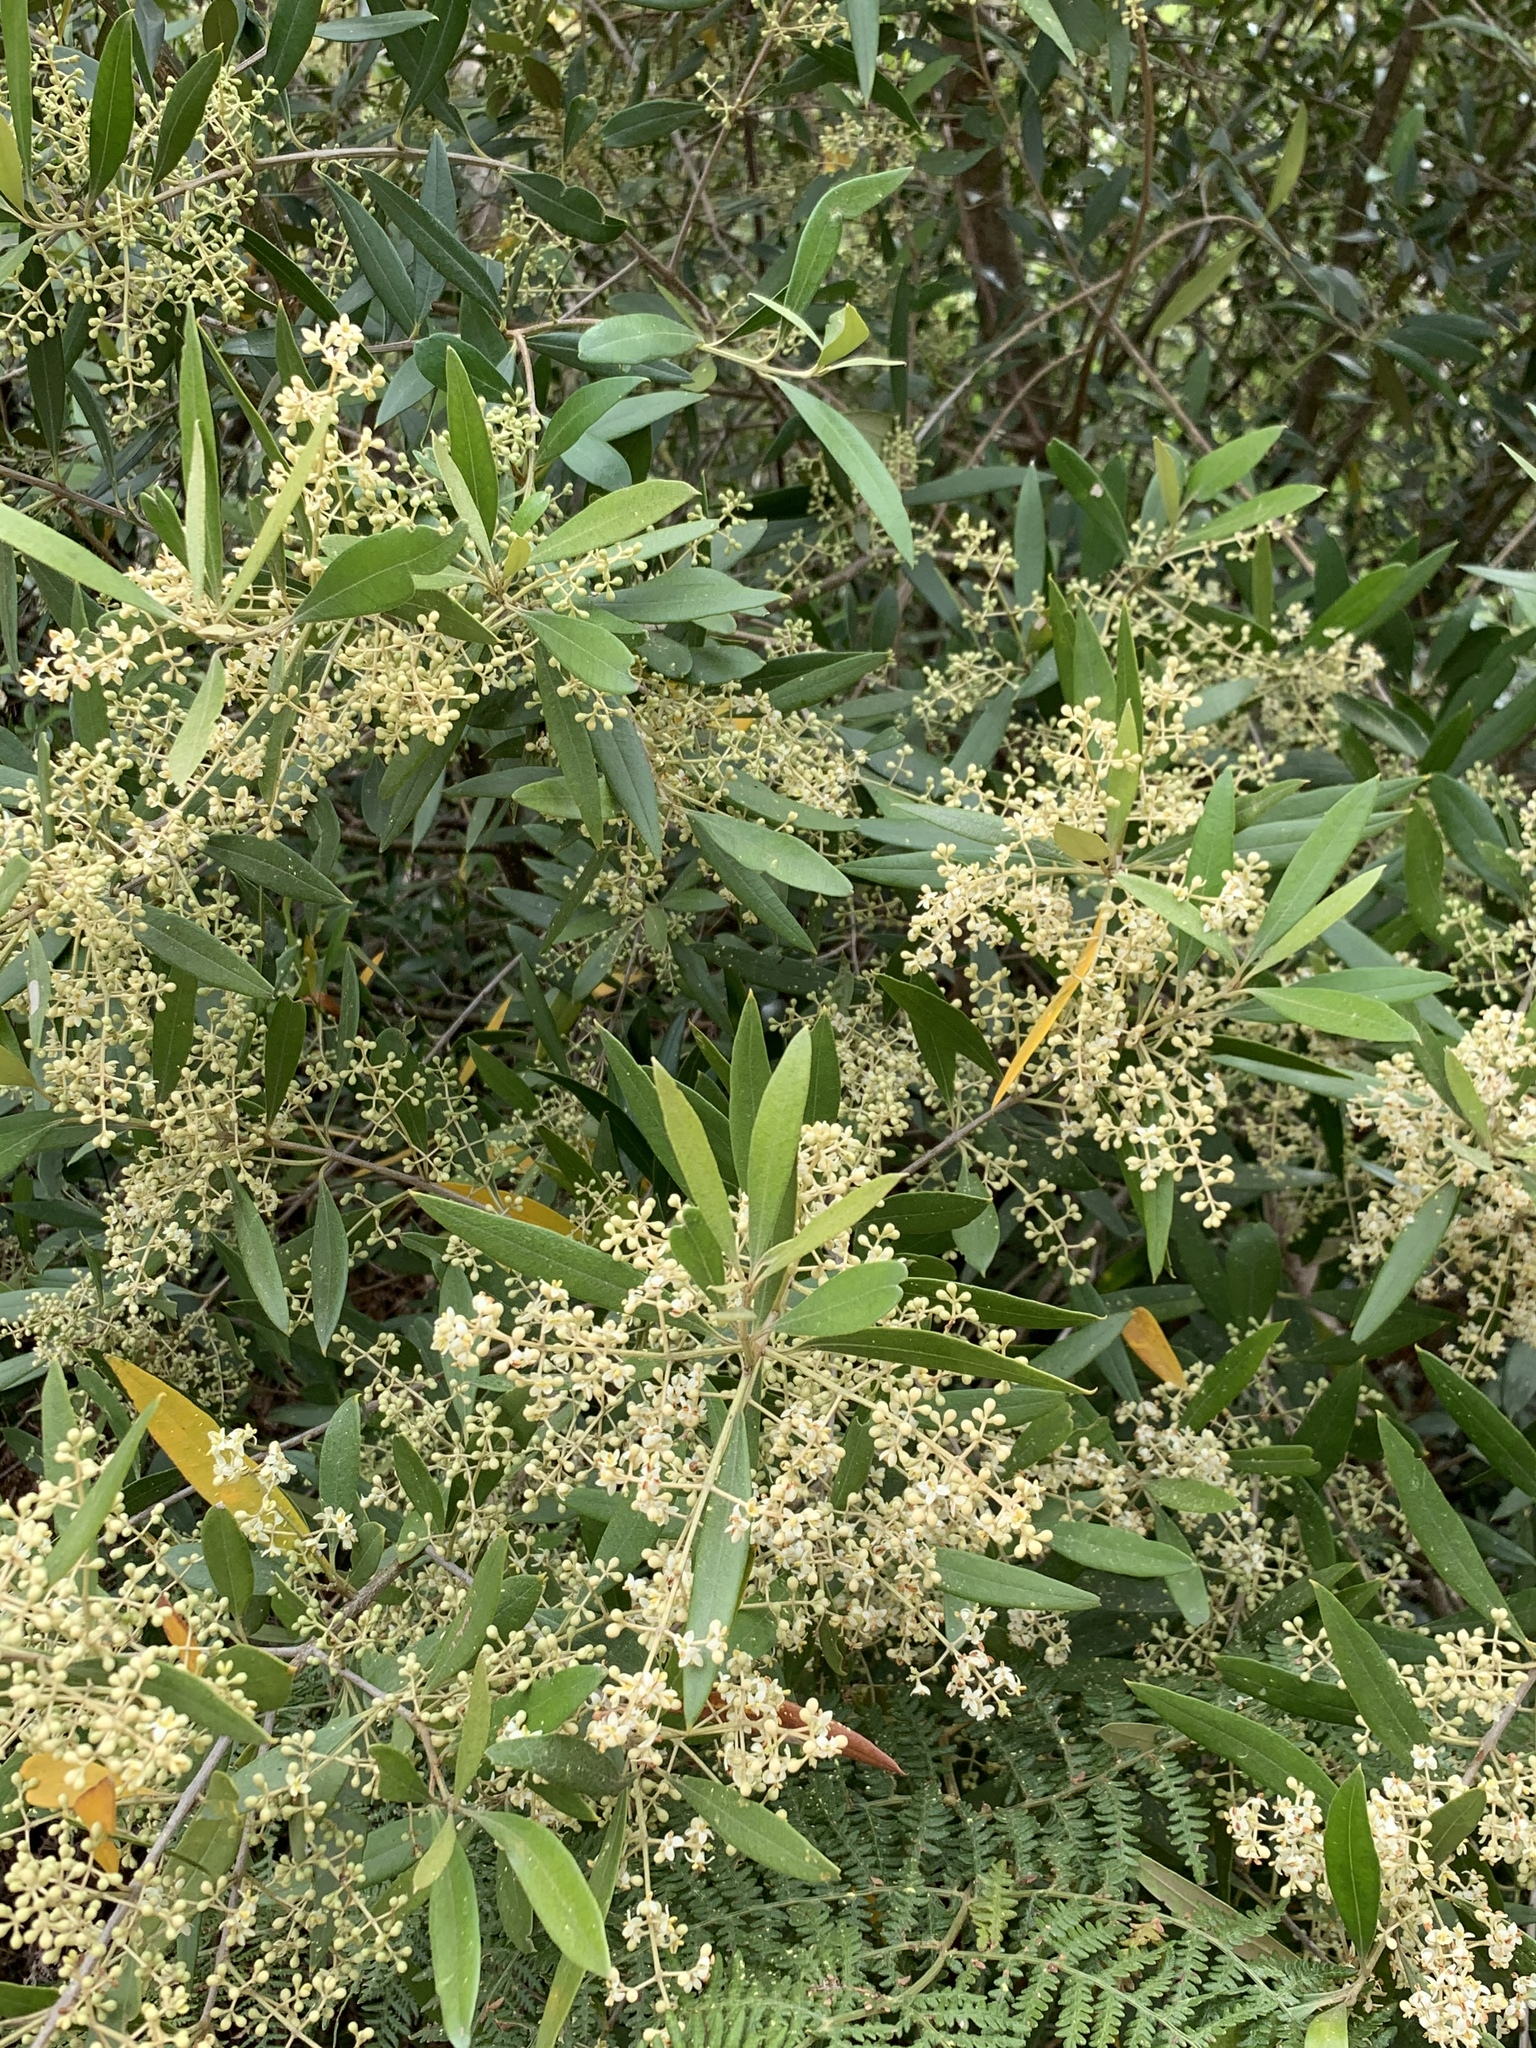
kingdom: Plantae
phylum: Tracheophyta
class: Magnoliopsida
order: Lamiales
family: Oleaceae
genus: Olea
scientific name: Olea europaea
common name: Olive
